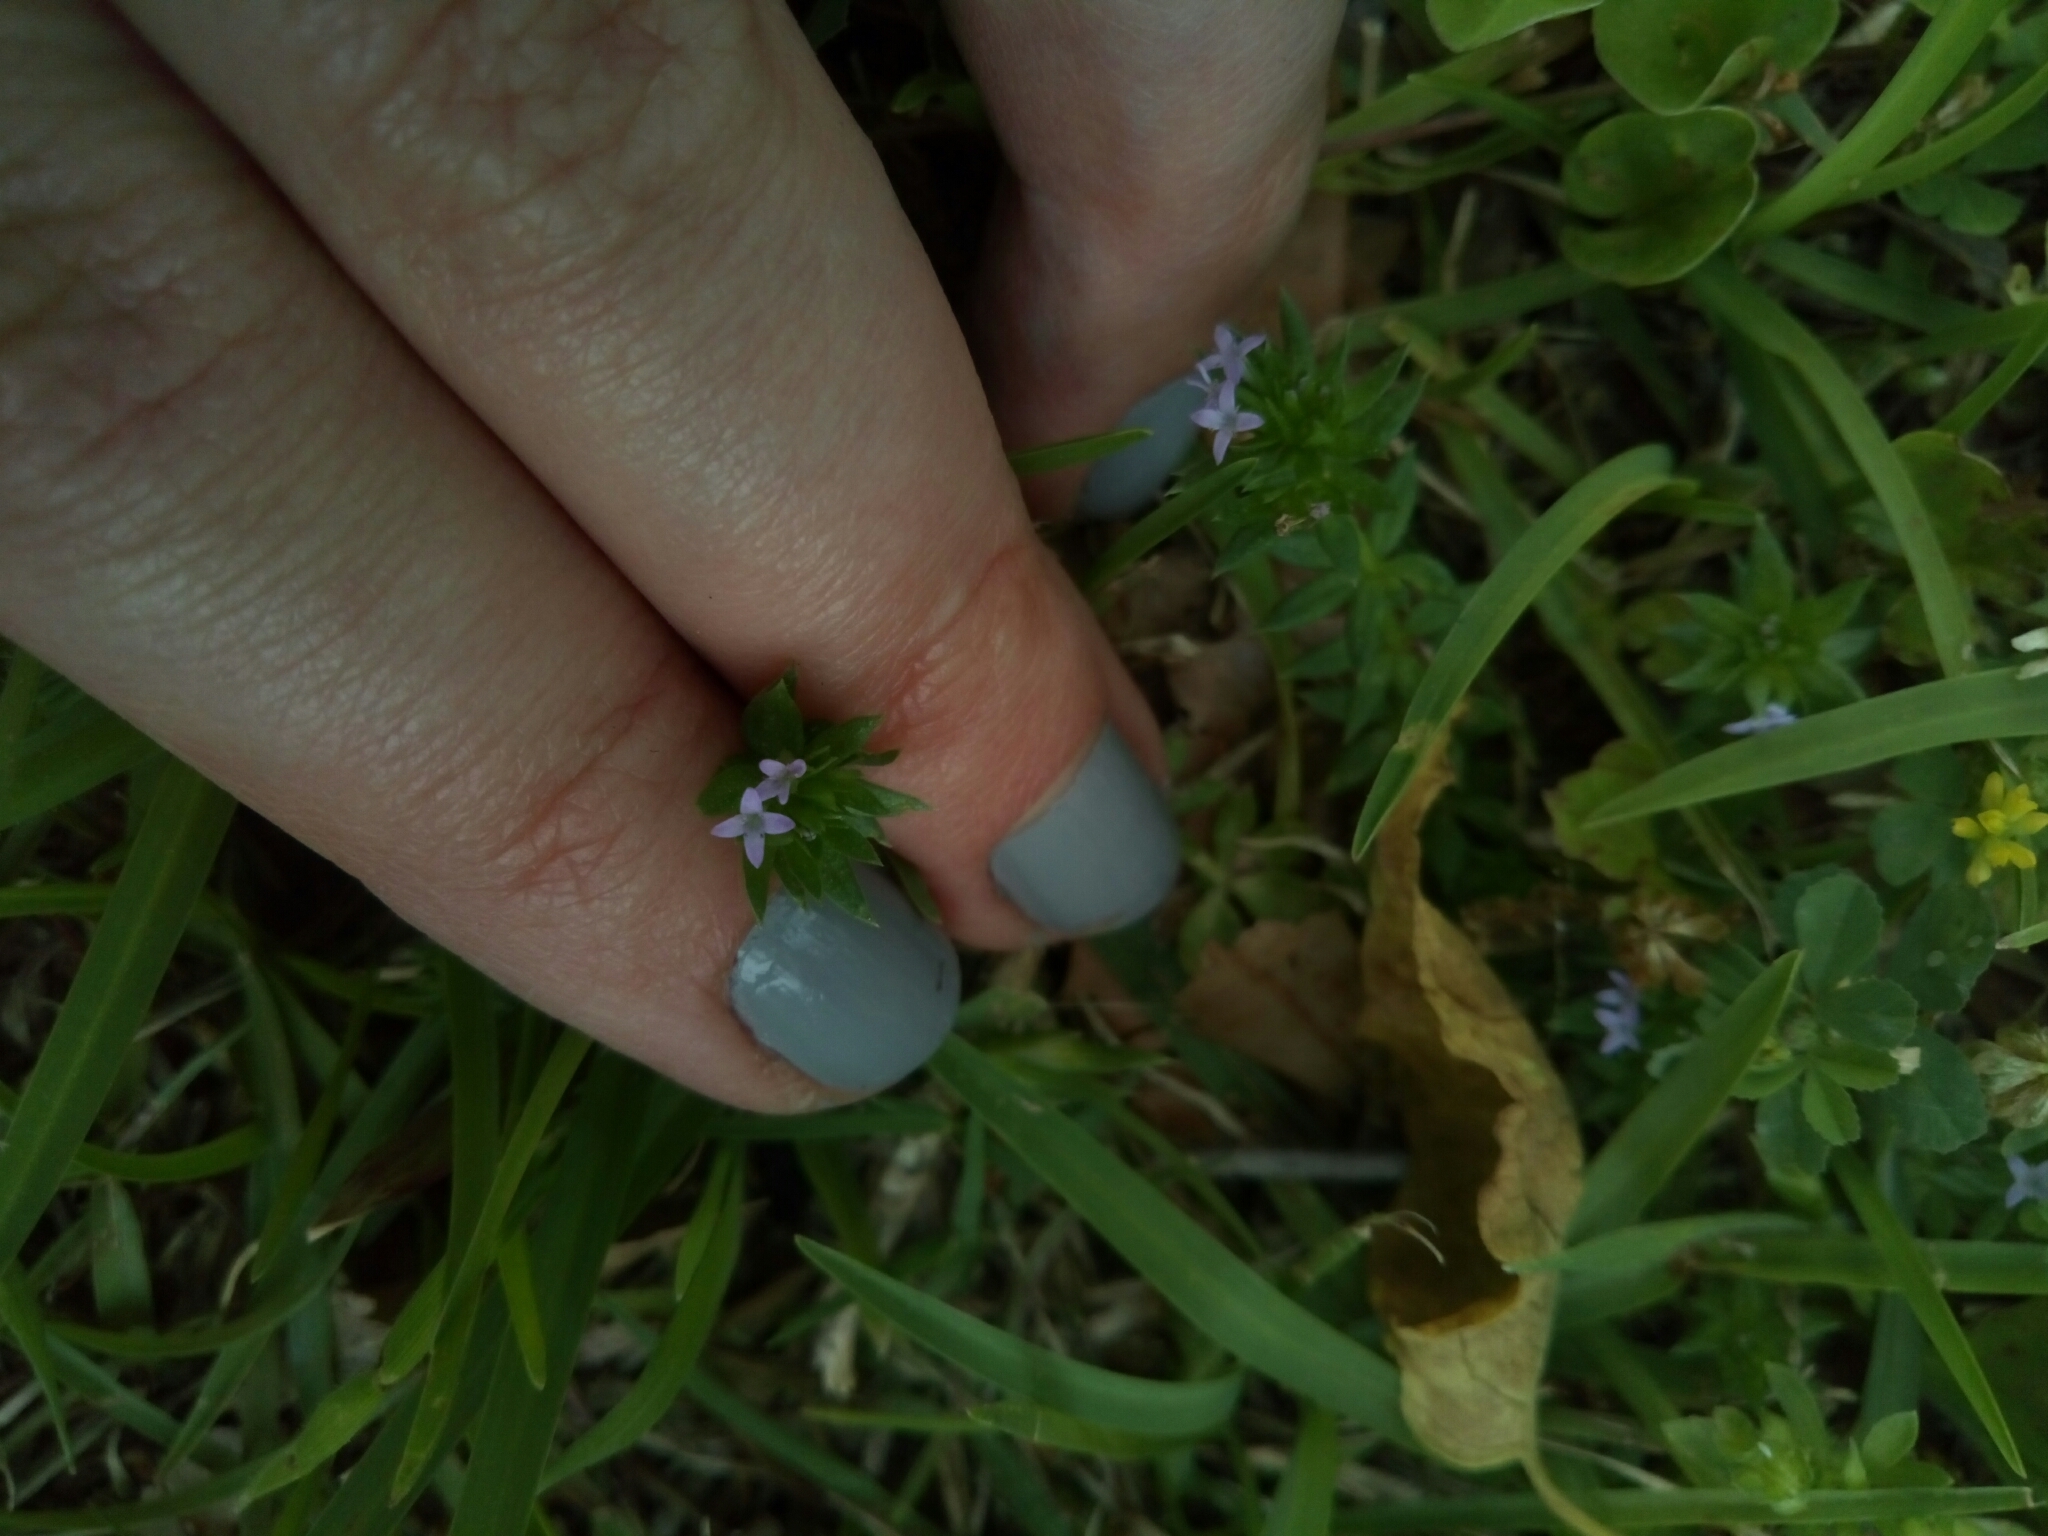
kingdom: Plantae
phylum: Tracheophyta
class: Magnoliopsida
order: Gentianales
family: Rubiaceae
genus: Sherardia
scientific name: Sherardia arvensis
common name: Field madder
